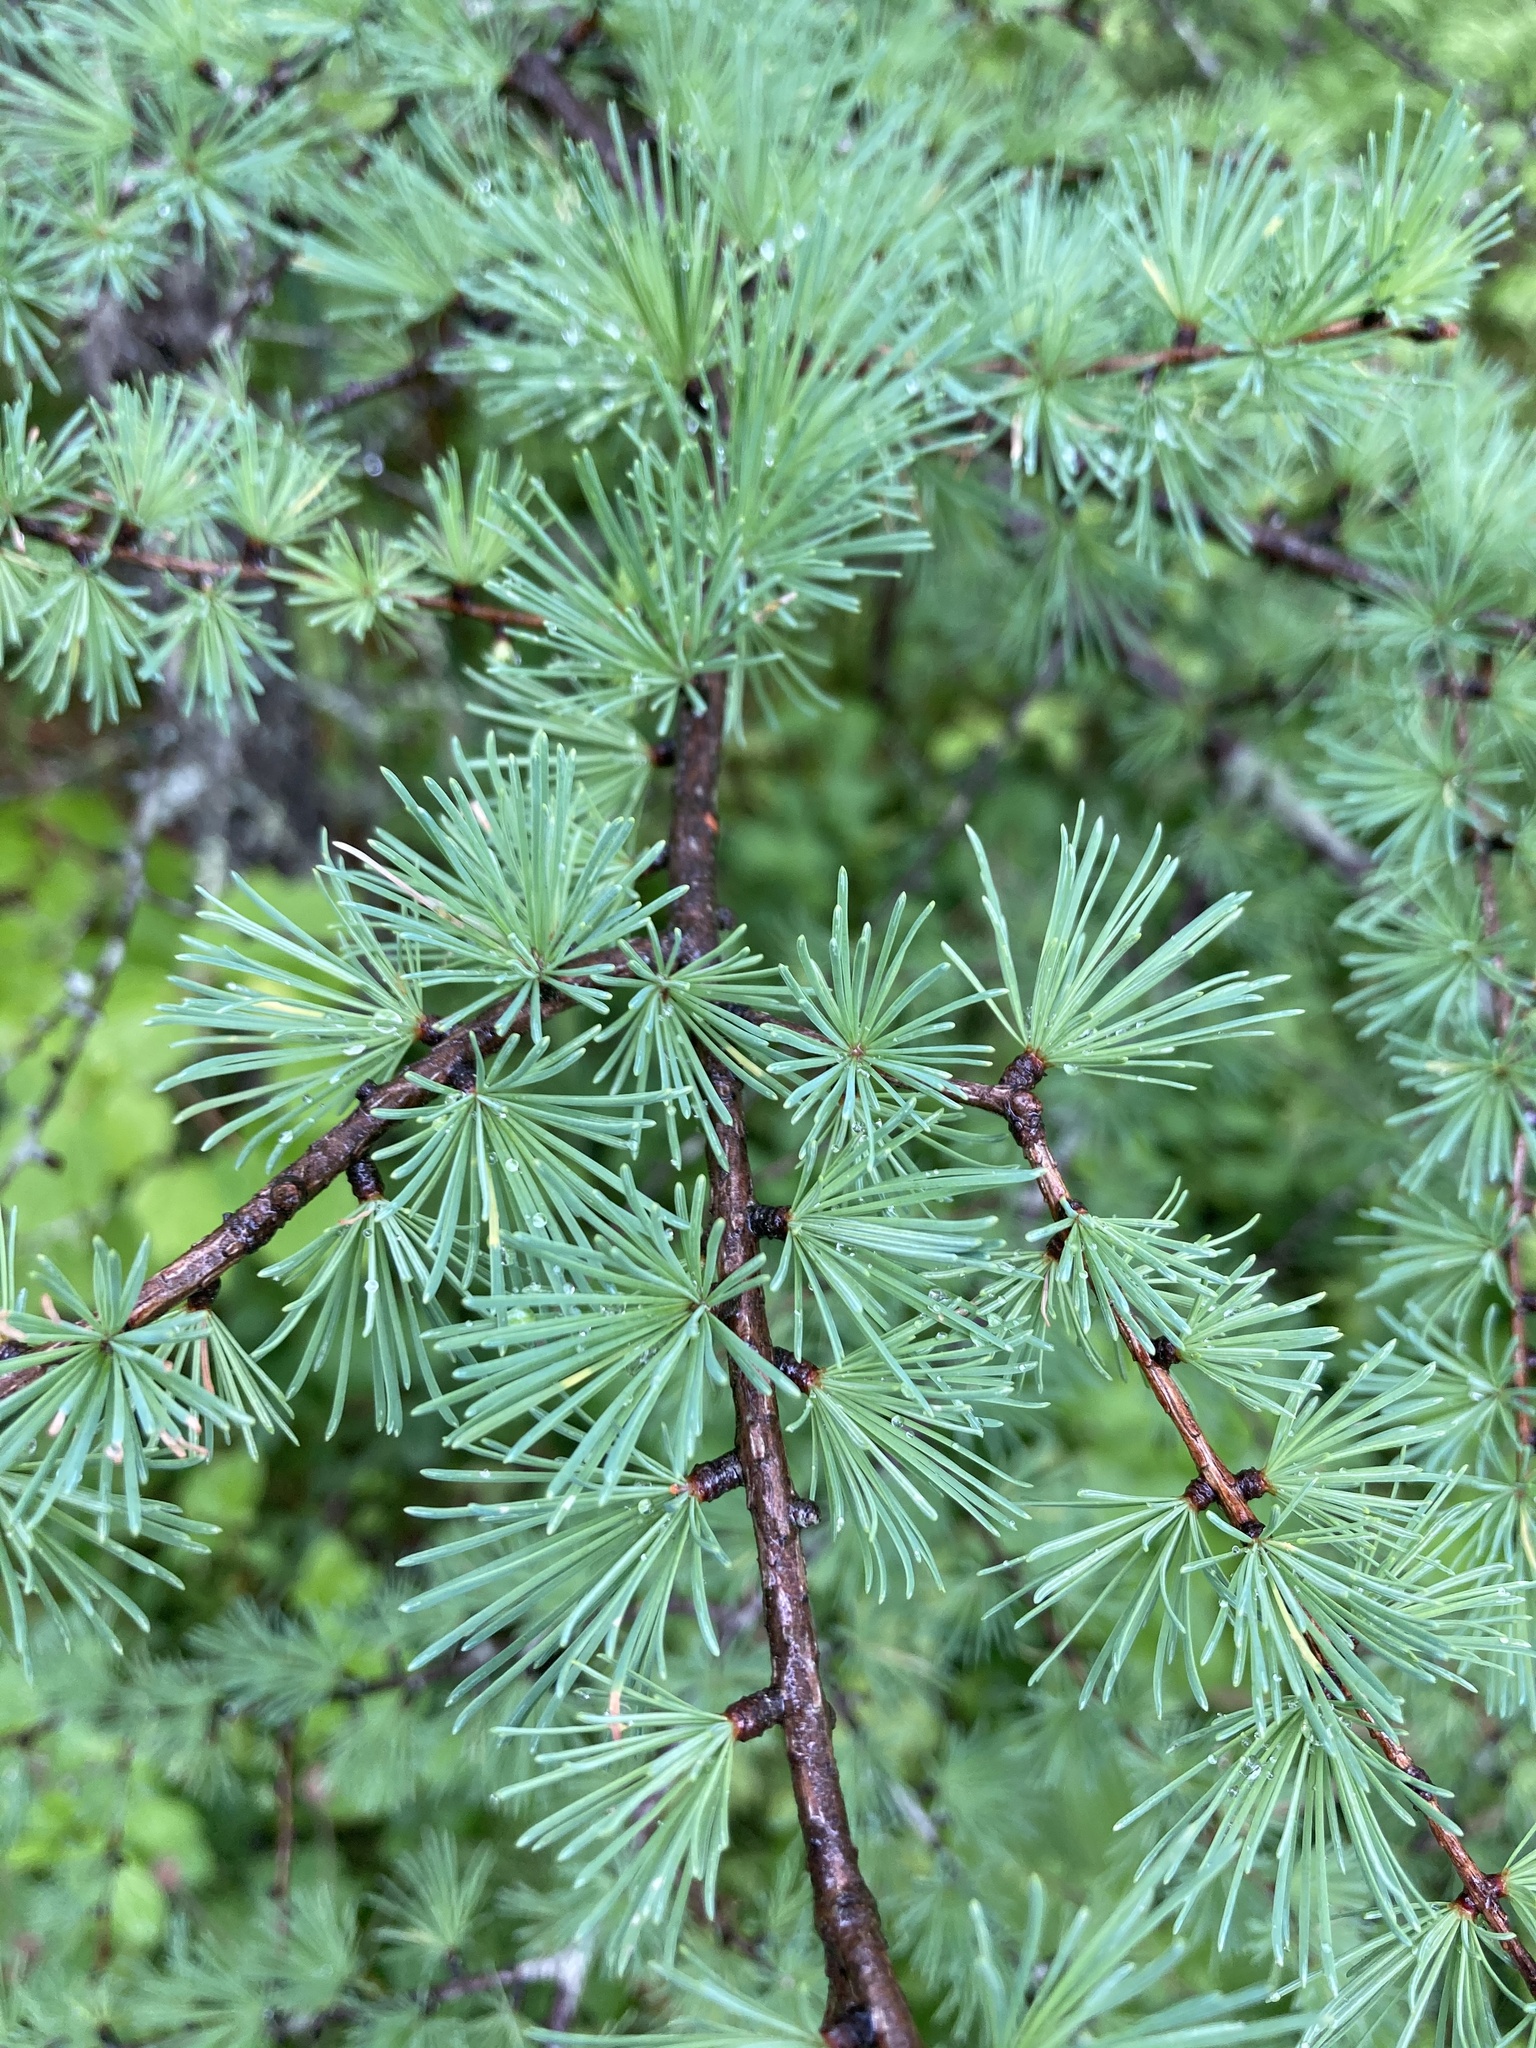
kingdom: Plantae
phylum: Tracheophyta
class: Pinopsida
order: Pinales
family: Pinaceae
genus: Larix
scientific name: Larix laricina
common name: American larch
